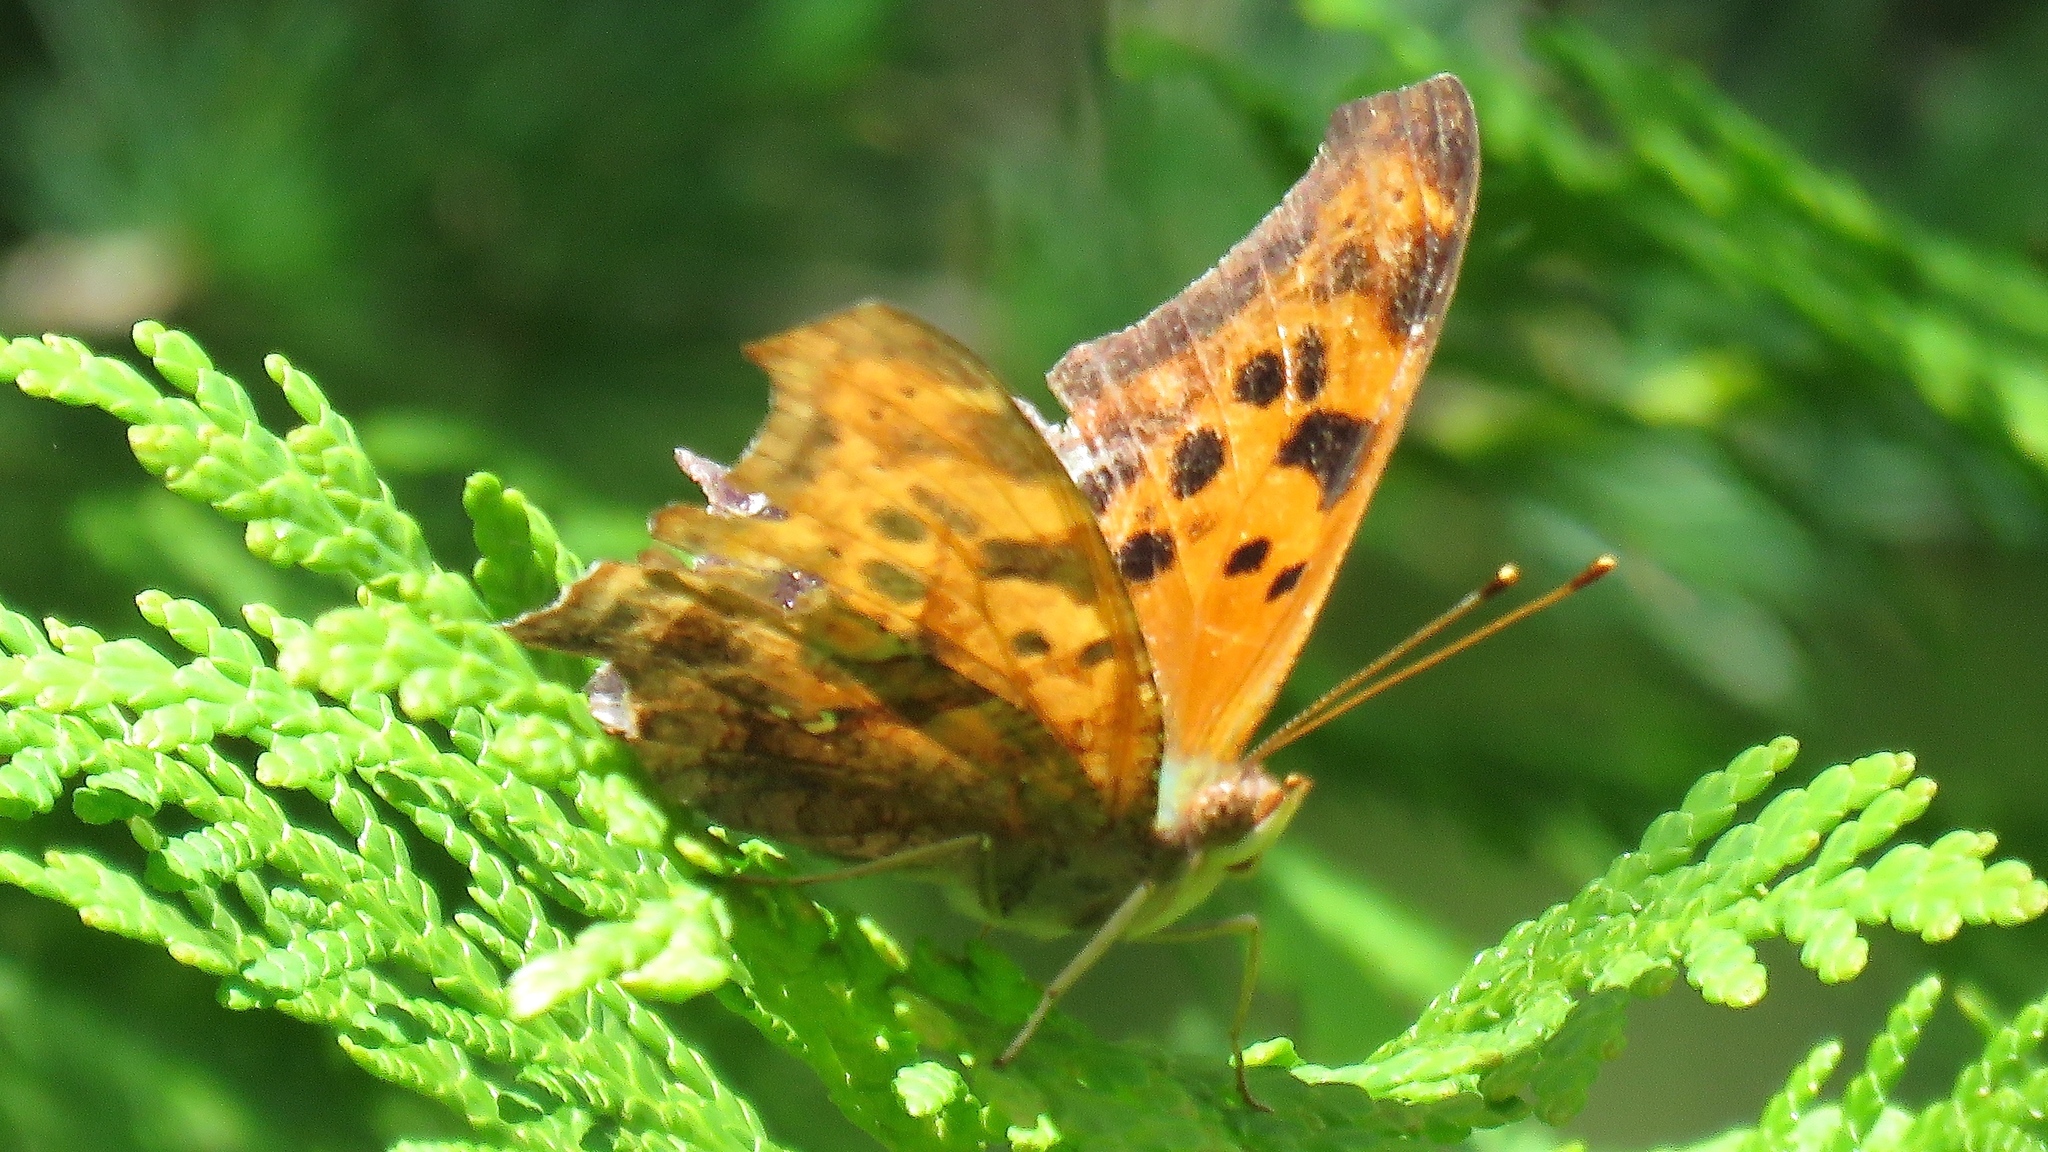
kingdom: Animalia
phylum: Arthropoda
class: Insecta
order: Lepidoptera
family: Nymphalidae
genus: Polygonia
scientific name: Polygonia interrogationis
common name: Question mark
